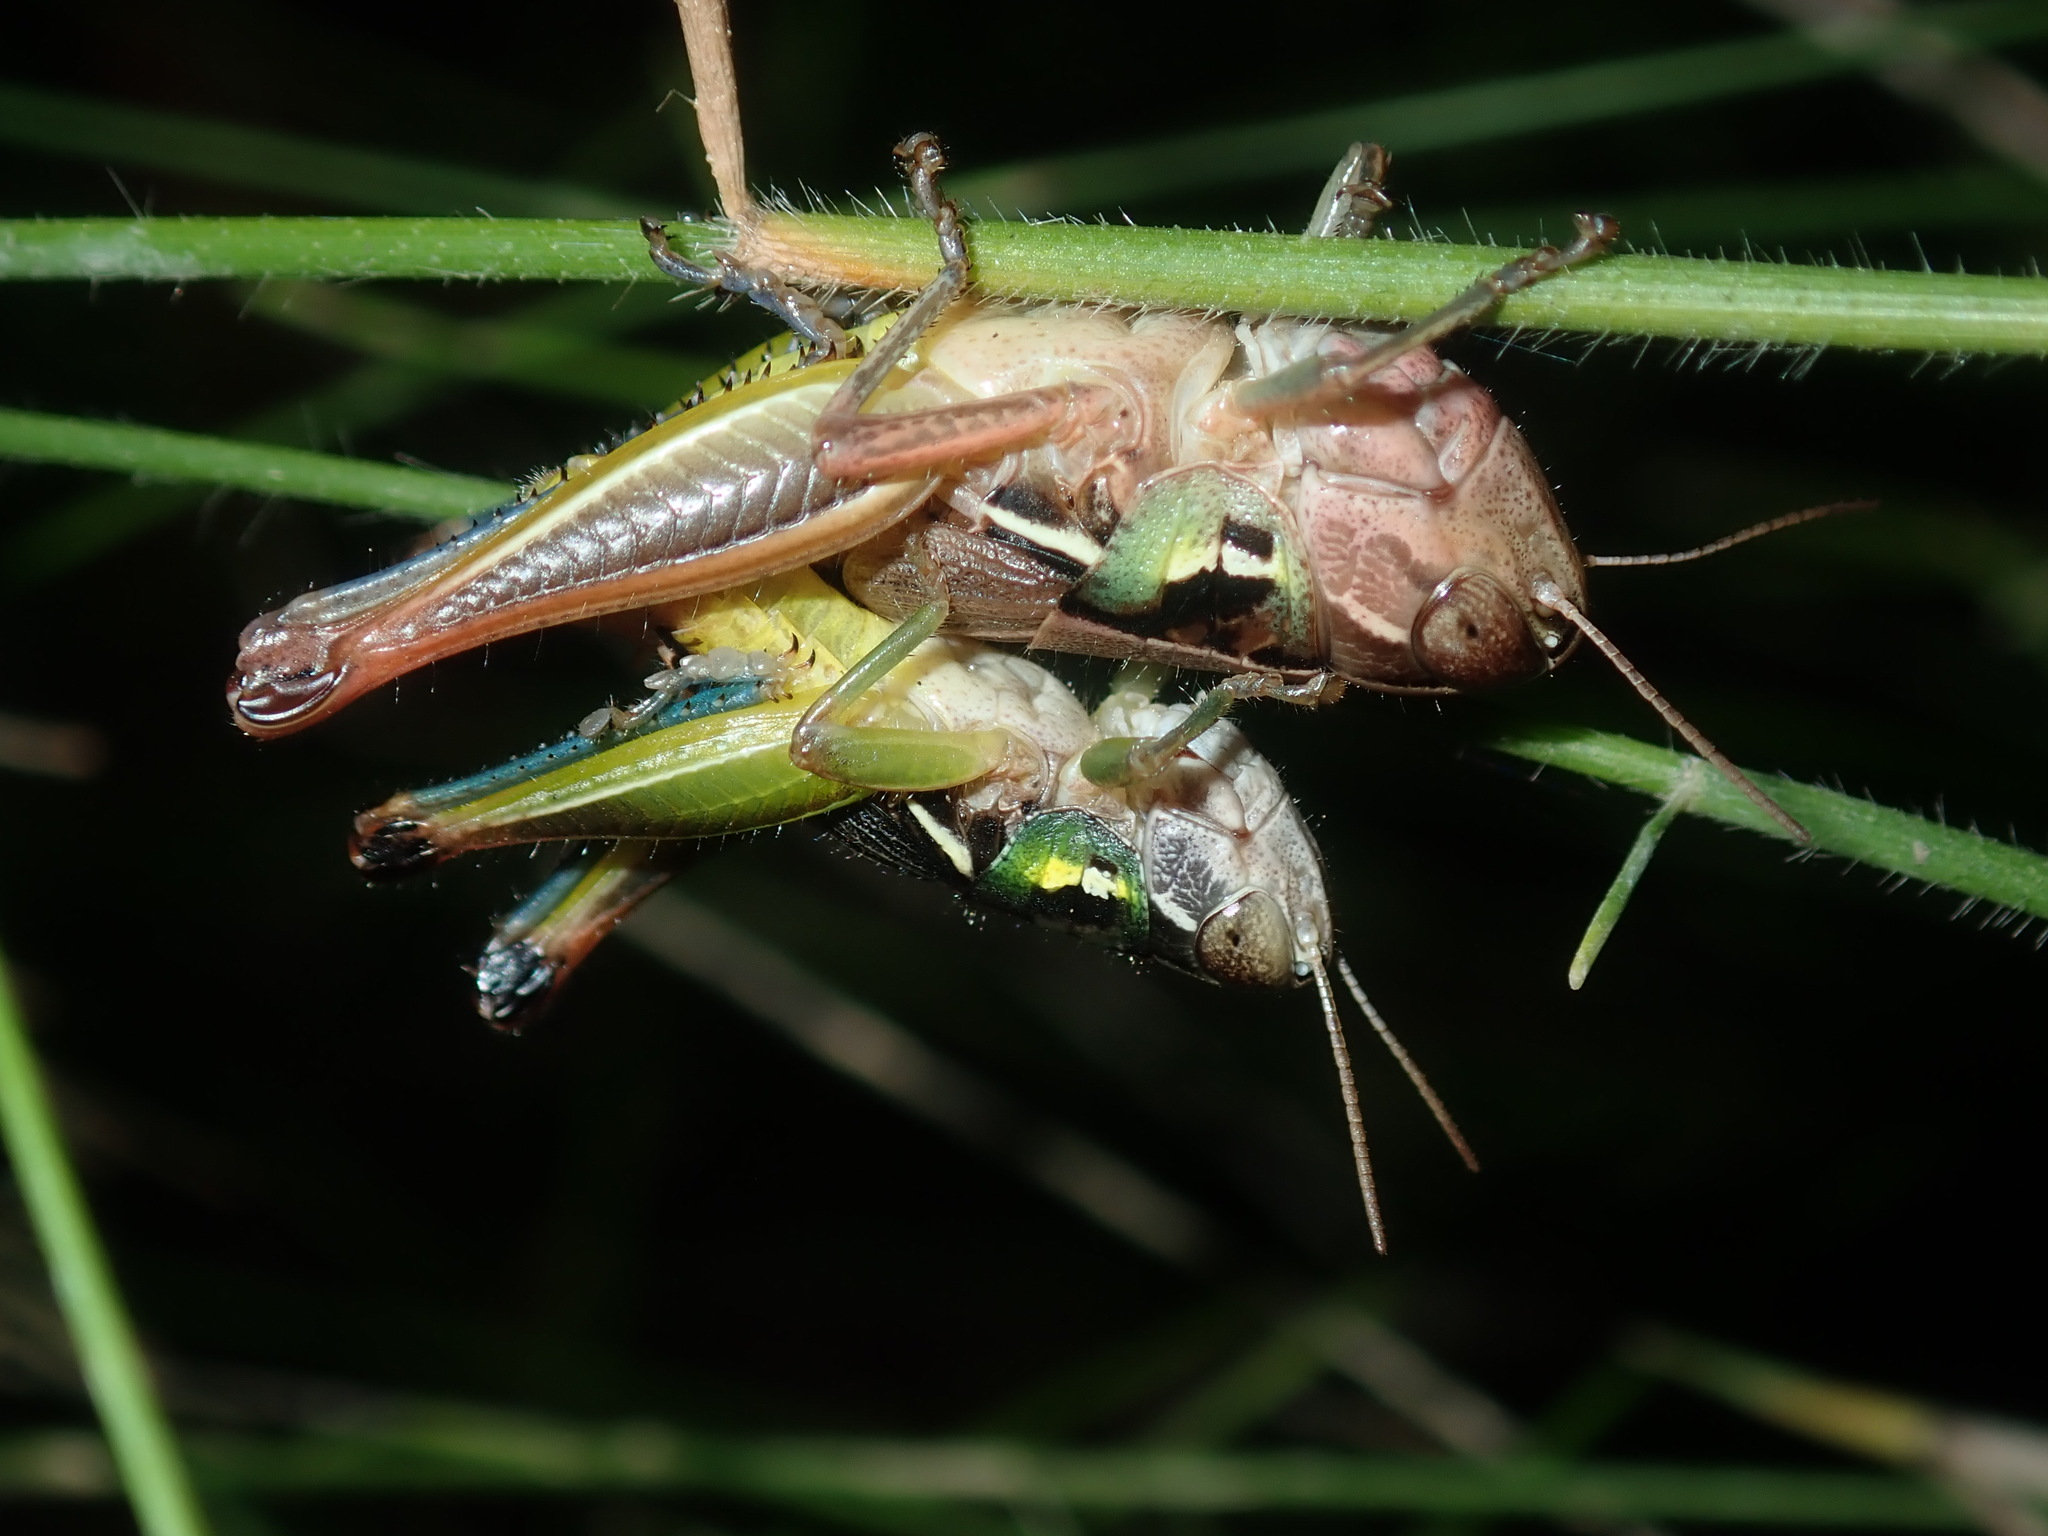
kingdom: Animalia
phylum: Arthropoda
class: Insecta
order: Orthoptera
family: Acrididae
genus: Praxibulus
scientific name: Praxibulus lewisi
